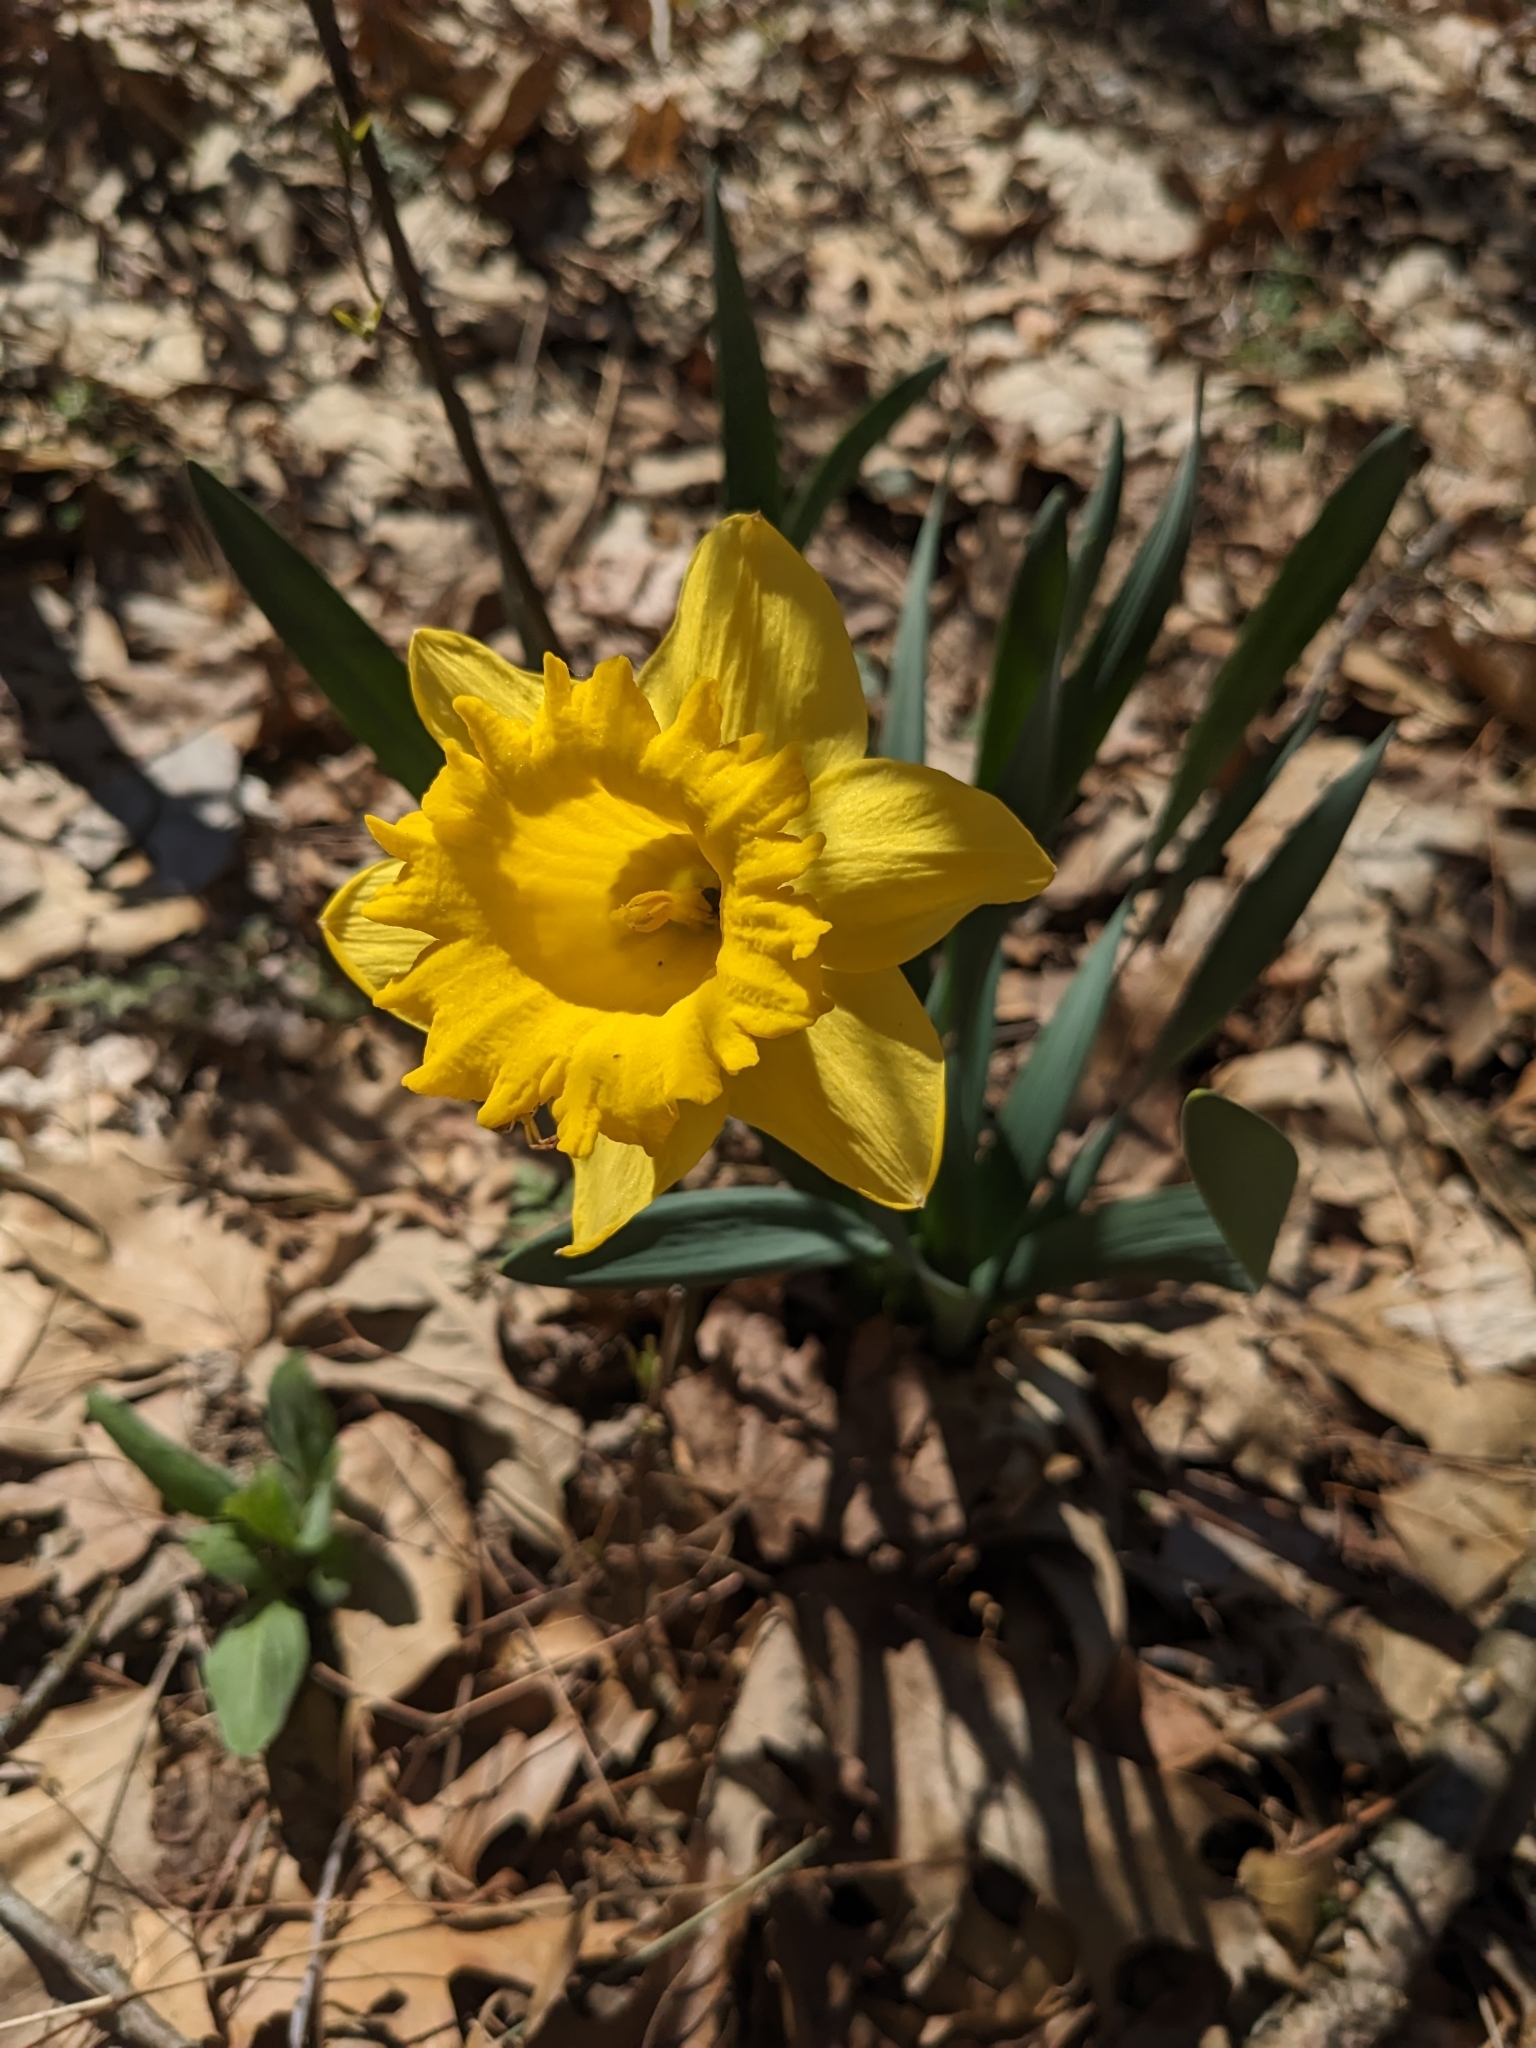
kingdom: Plantae
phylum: Tracheophyta
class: Liliopsida
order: Asparagales
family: Amaryllidaceae
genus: Narcissus
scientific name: Narcissus pseudonarcissus
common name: Daffodil
